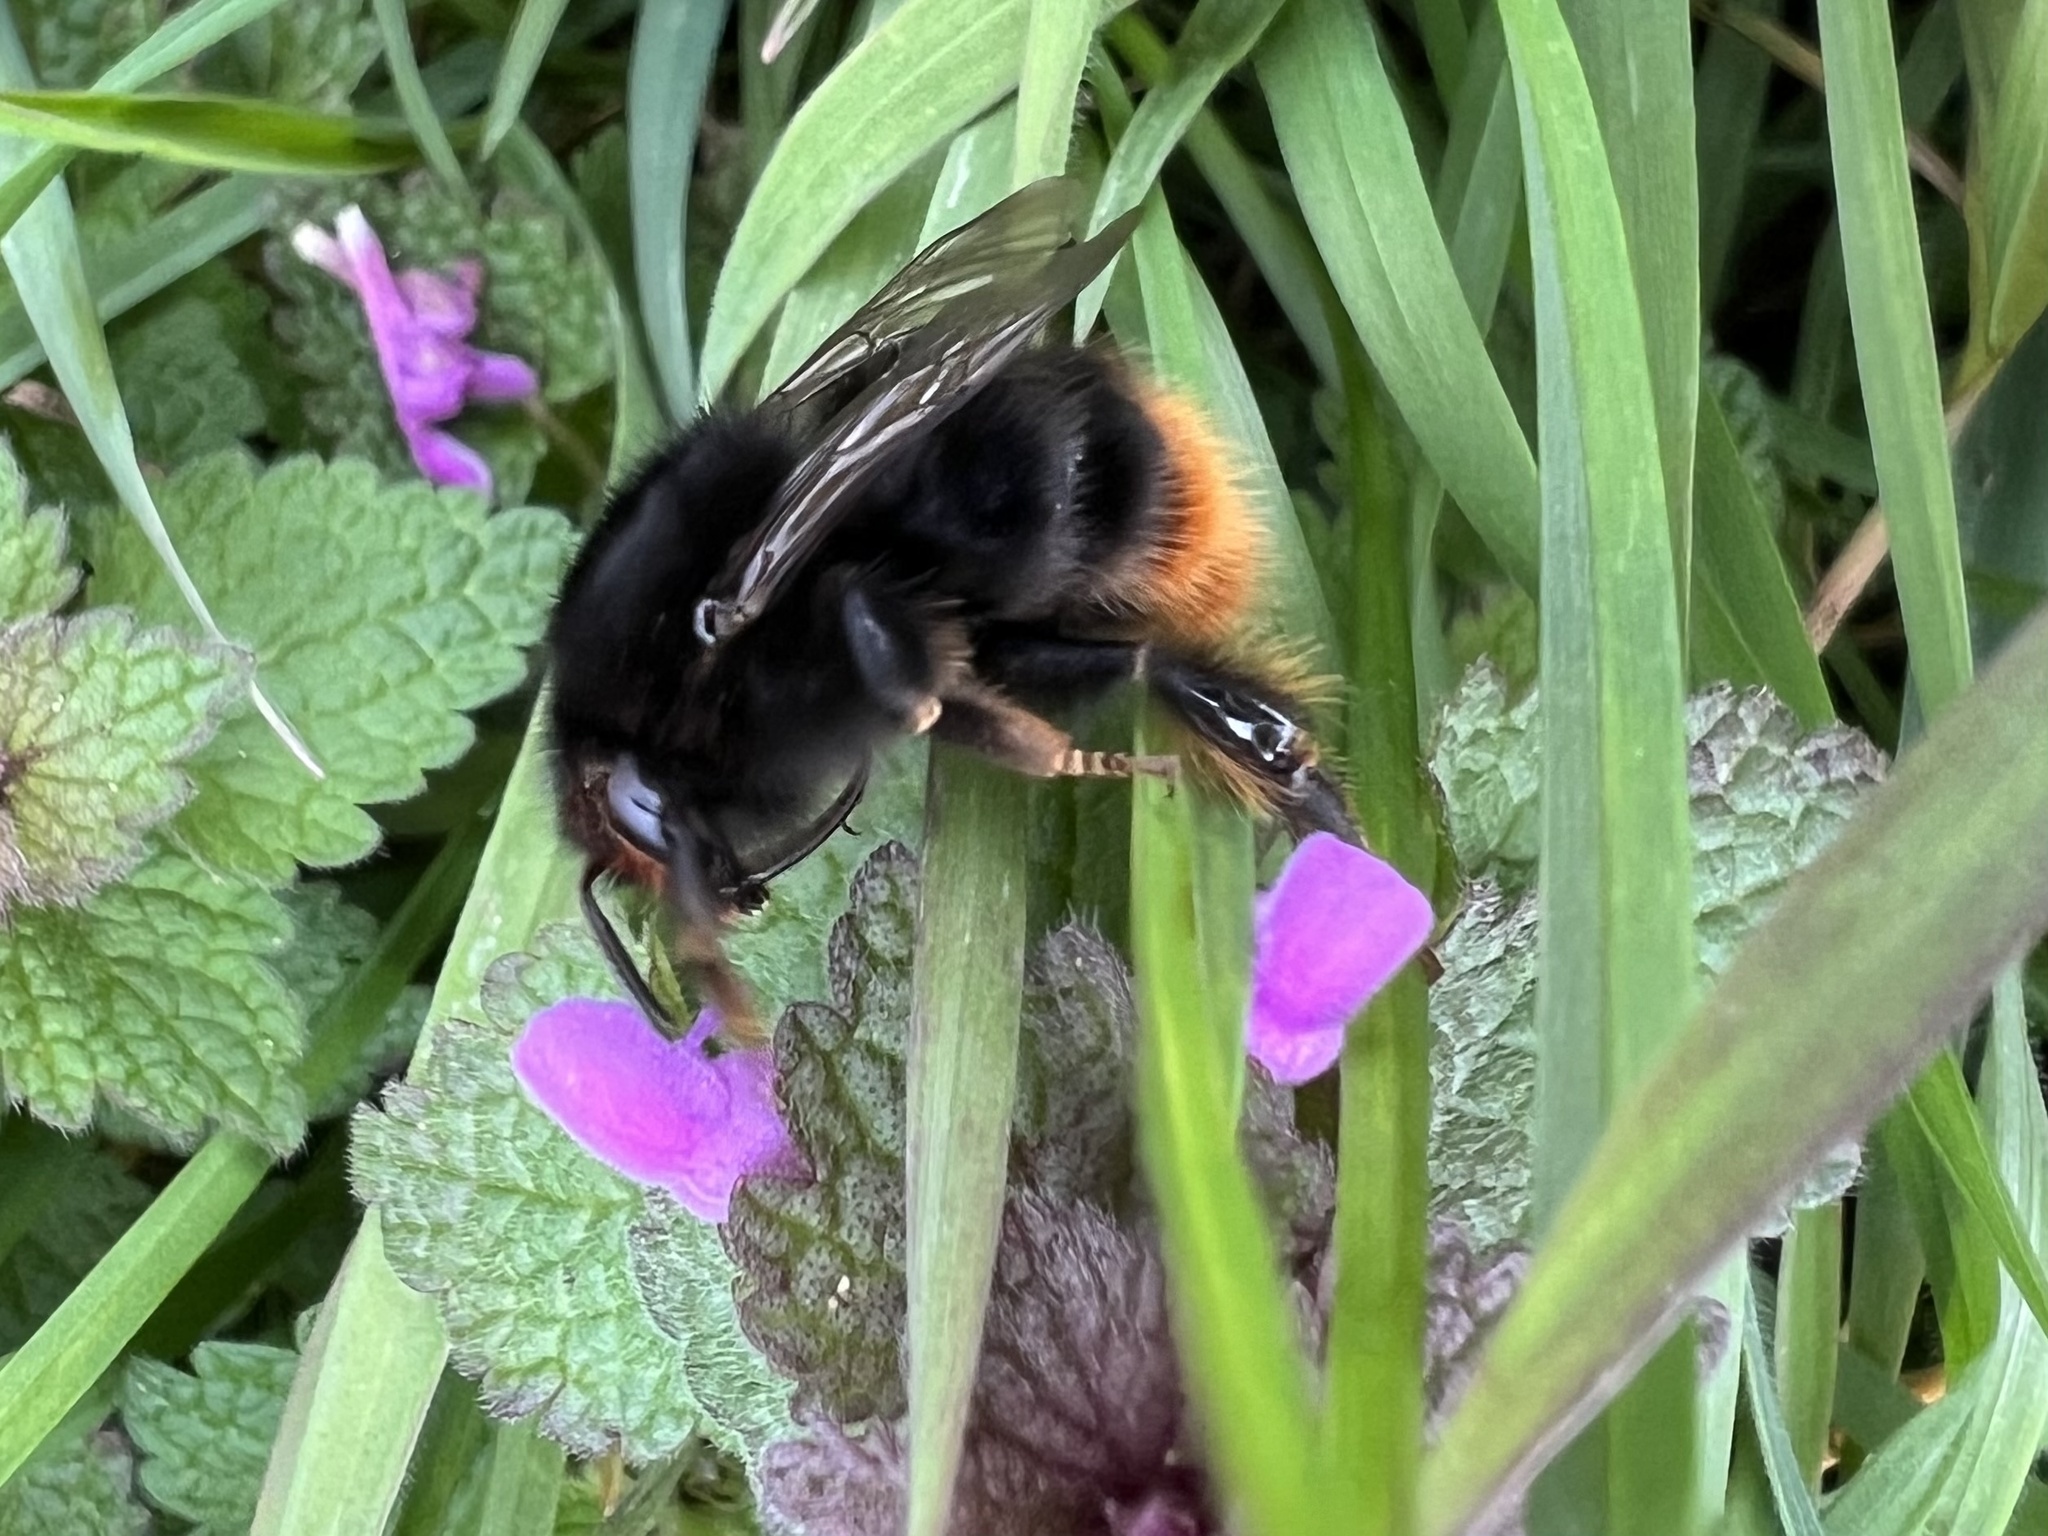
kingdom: Animalia
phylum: Arthropoda
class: Insecta
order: Hymenoptera
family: Apidae
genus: Bombus
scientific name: Bombus ruderarius
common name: Red-shanked carder-bee
